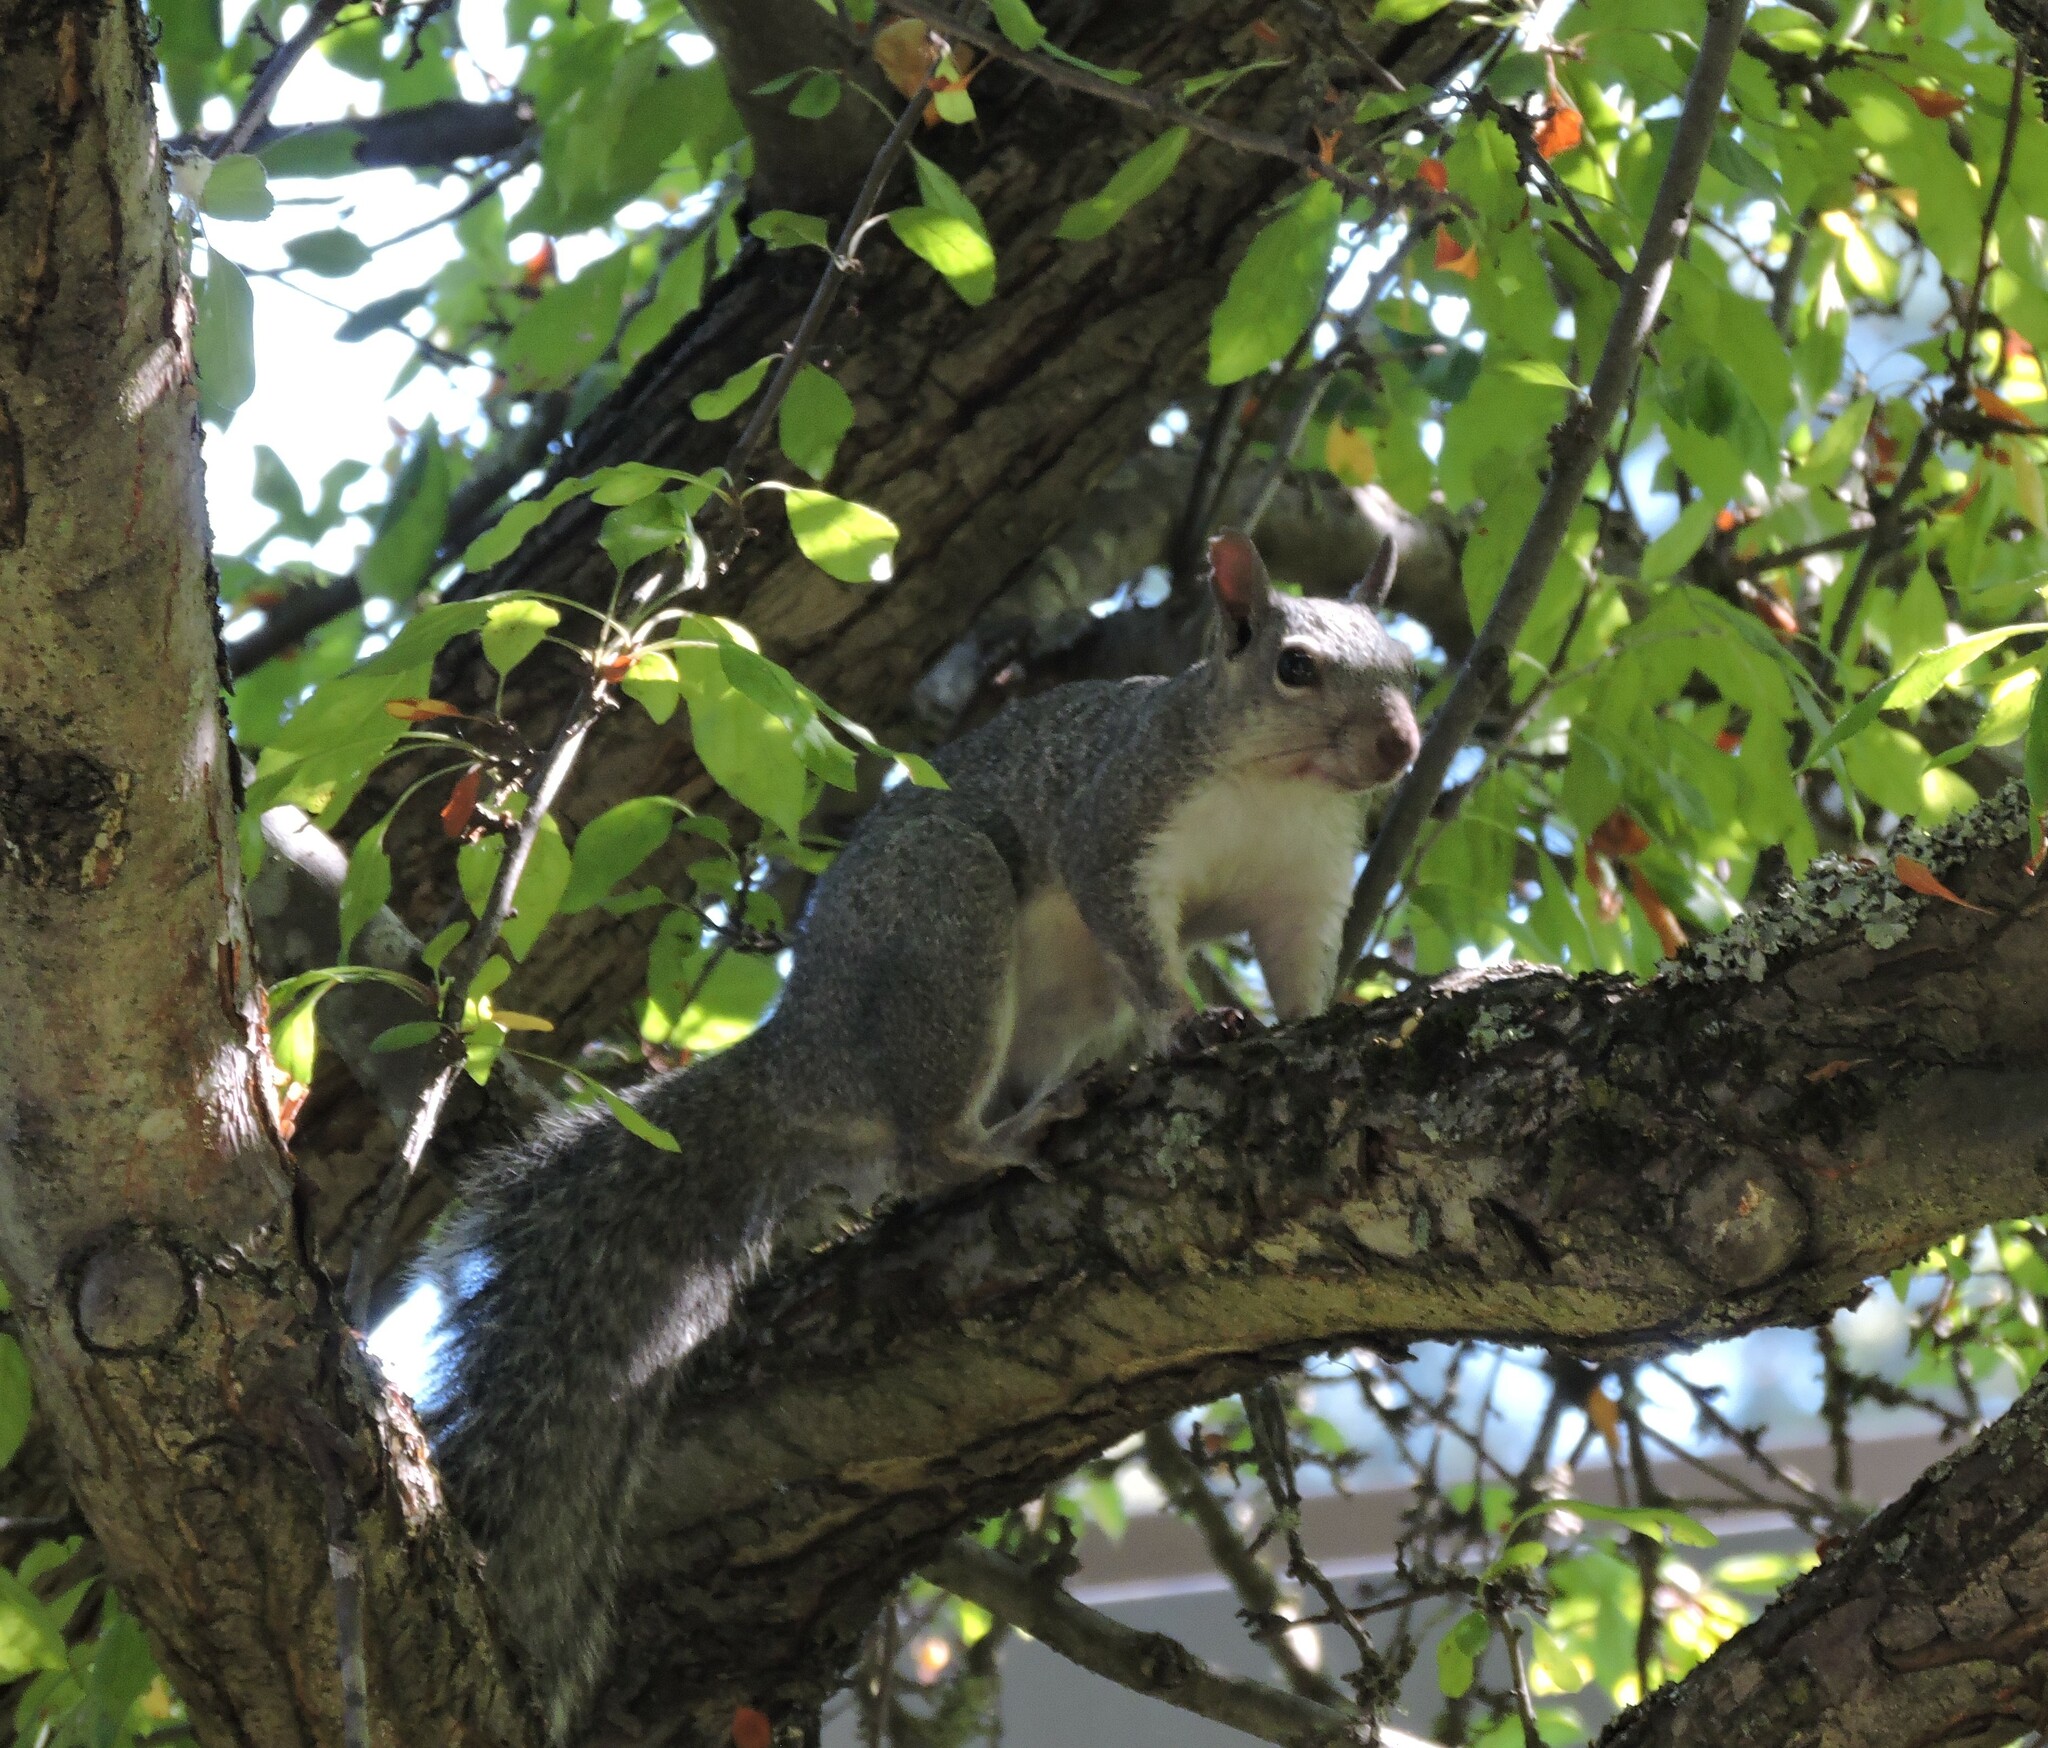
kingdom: Animalia
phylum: Chordata
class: Mammalia
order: Rodentia
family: Sciuridae
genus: Sciurus
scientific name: Sciurus griseus
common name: Western gray squirrel
